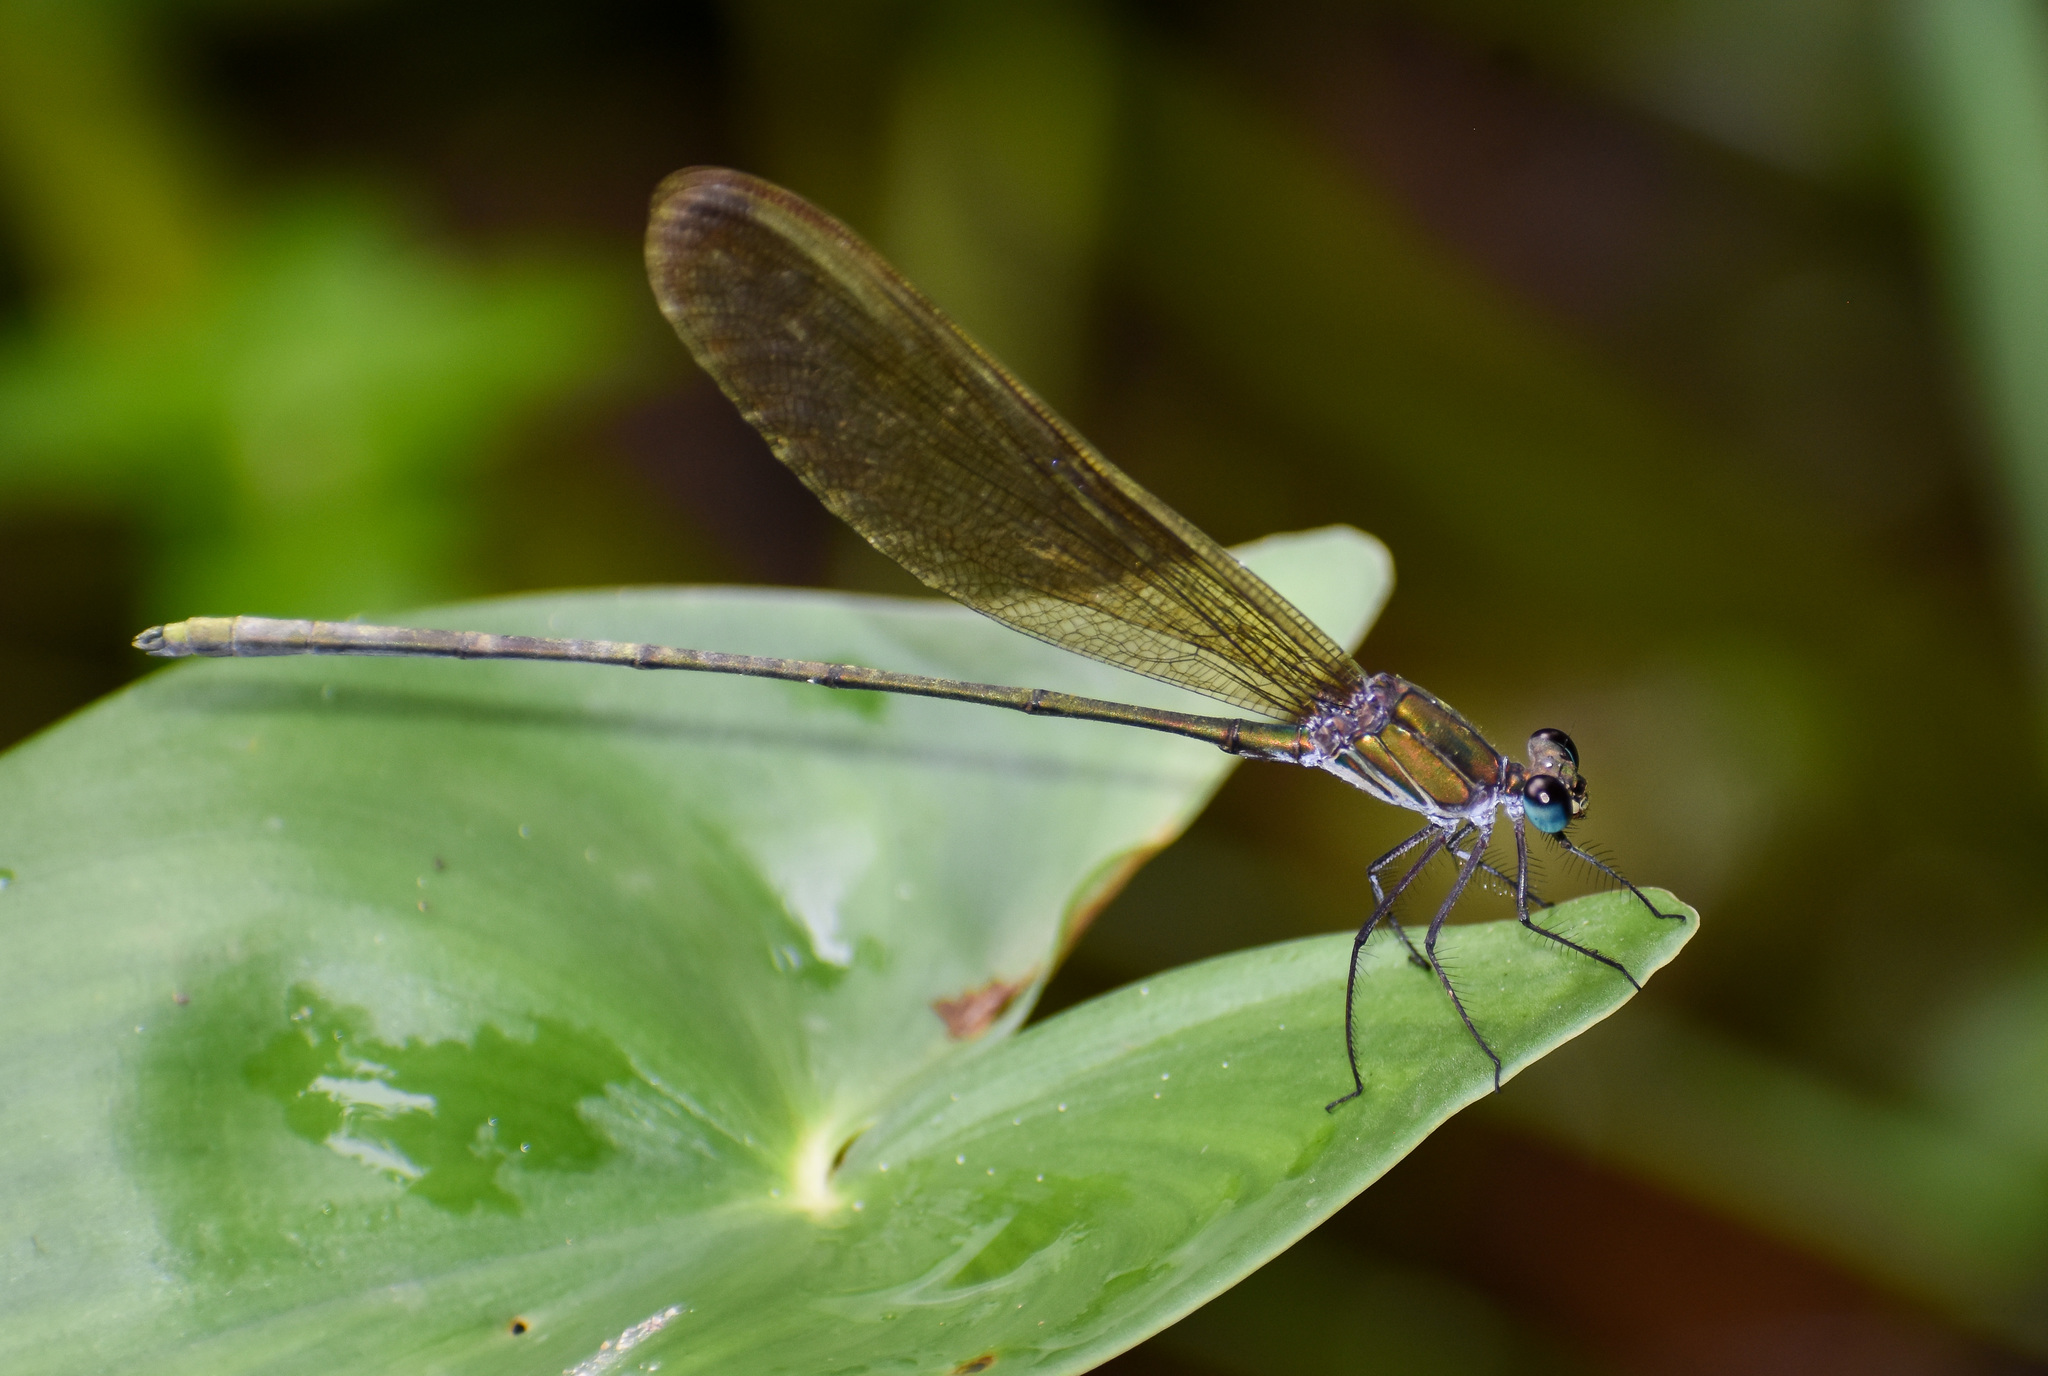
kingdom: Animalia
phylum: Arthropoda
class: Insecta
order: Odonata
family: Calopterygidae
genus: Vestalis
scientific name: Vestalis gracilis
